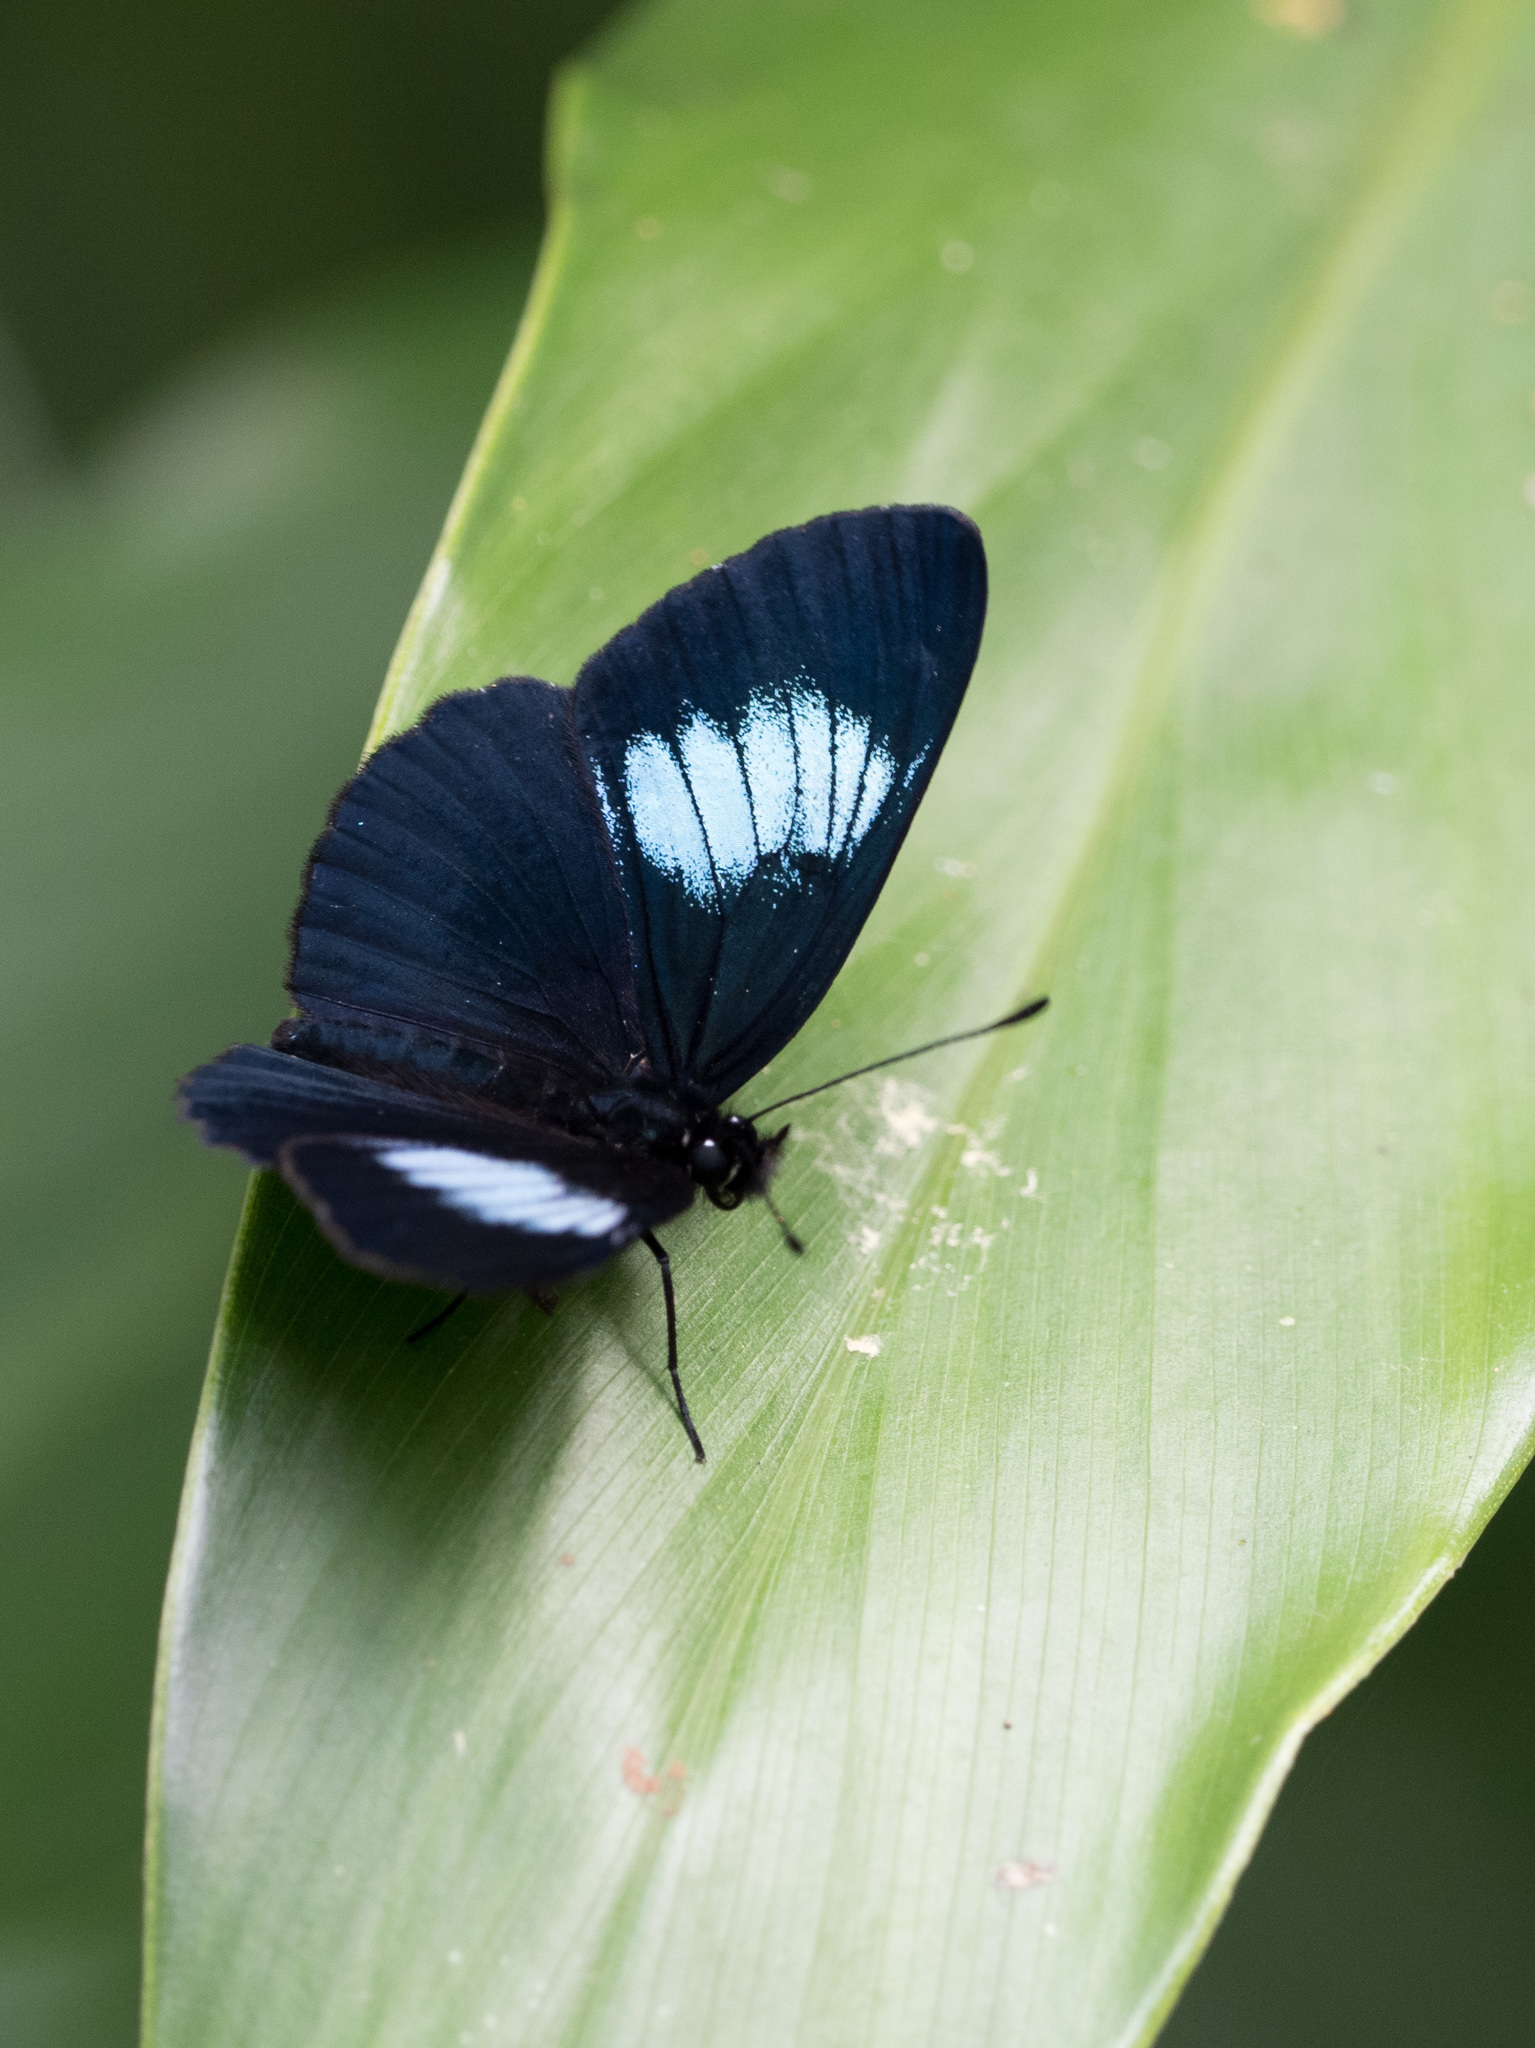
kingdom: Animalia
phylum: Arthropoda
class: Insecta
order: Lepidoptera
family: Nymphalidae
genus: Eresia
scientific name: Eresia levina
